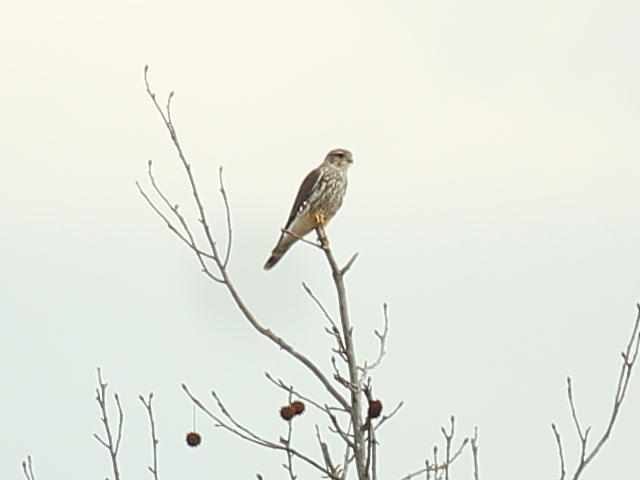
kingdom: Animalia
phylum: Chordata
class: Aves
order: Falconiformes
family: Falconidae
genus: Falco
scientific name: Falco columbarius
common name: Merlin
